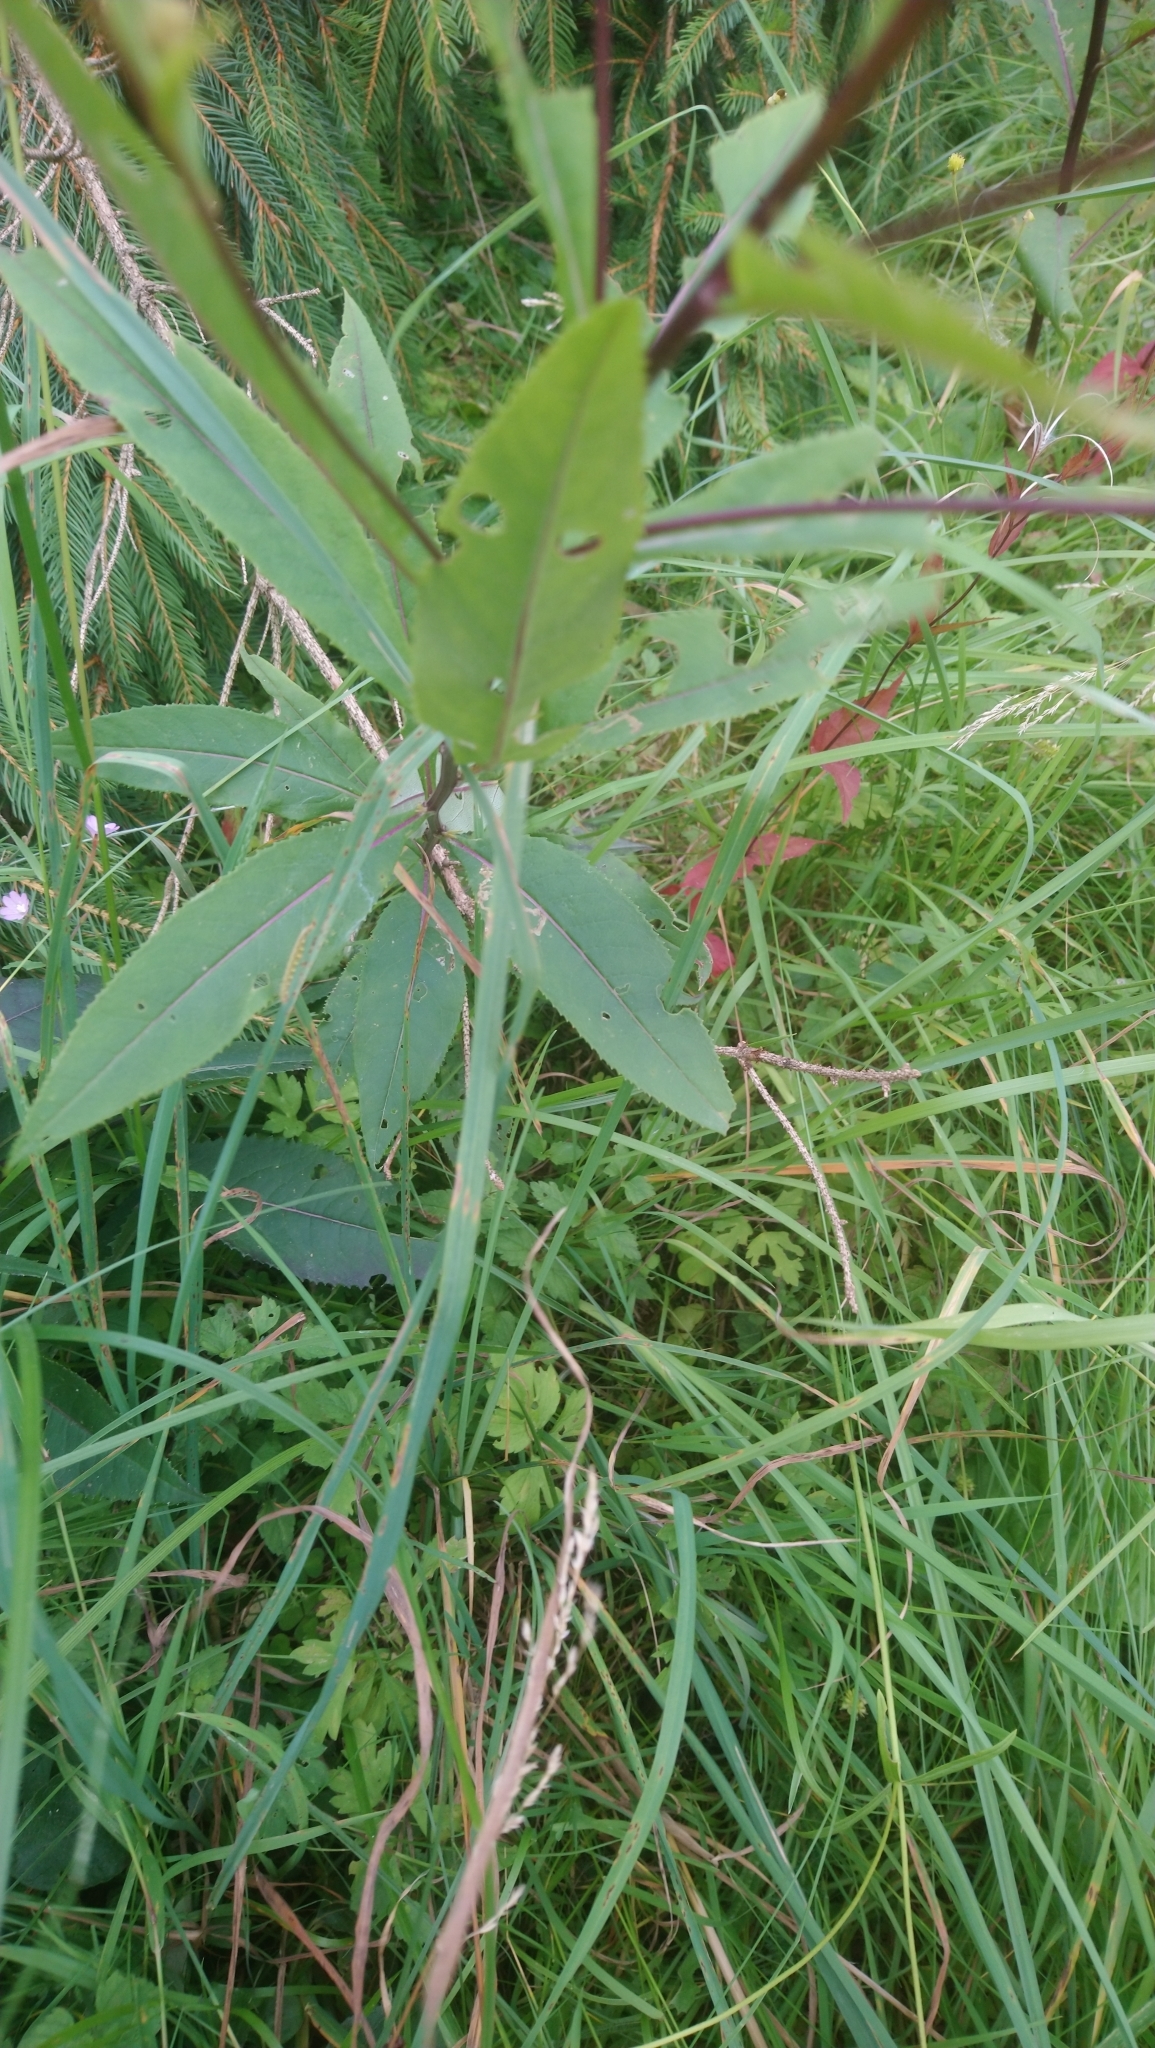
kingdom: Plantae
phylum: Tracheophyta
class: Magnoliopsida
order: Asterales
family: Asteraceae
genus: Senecio
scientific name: Senecio ovatus
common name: Wood ragwort
